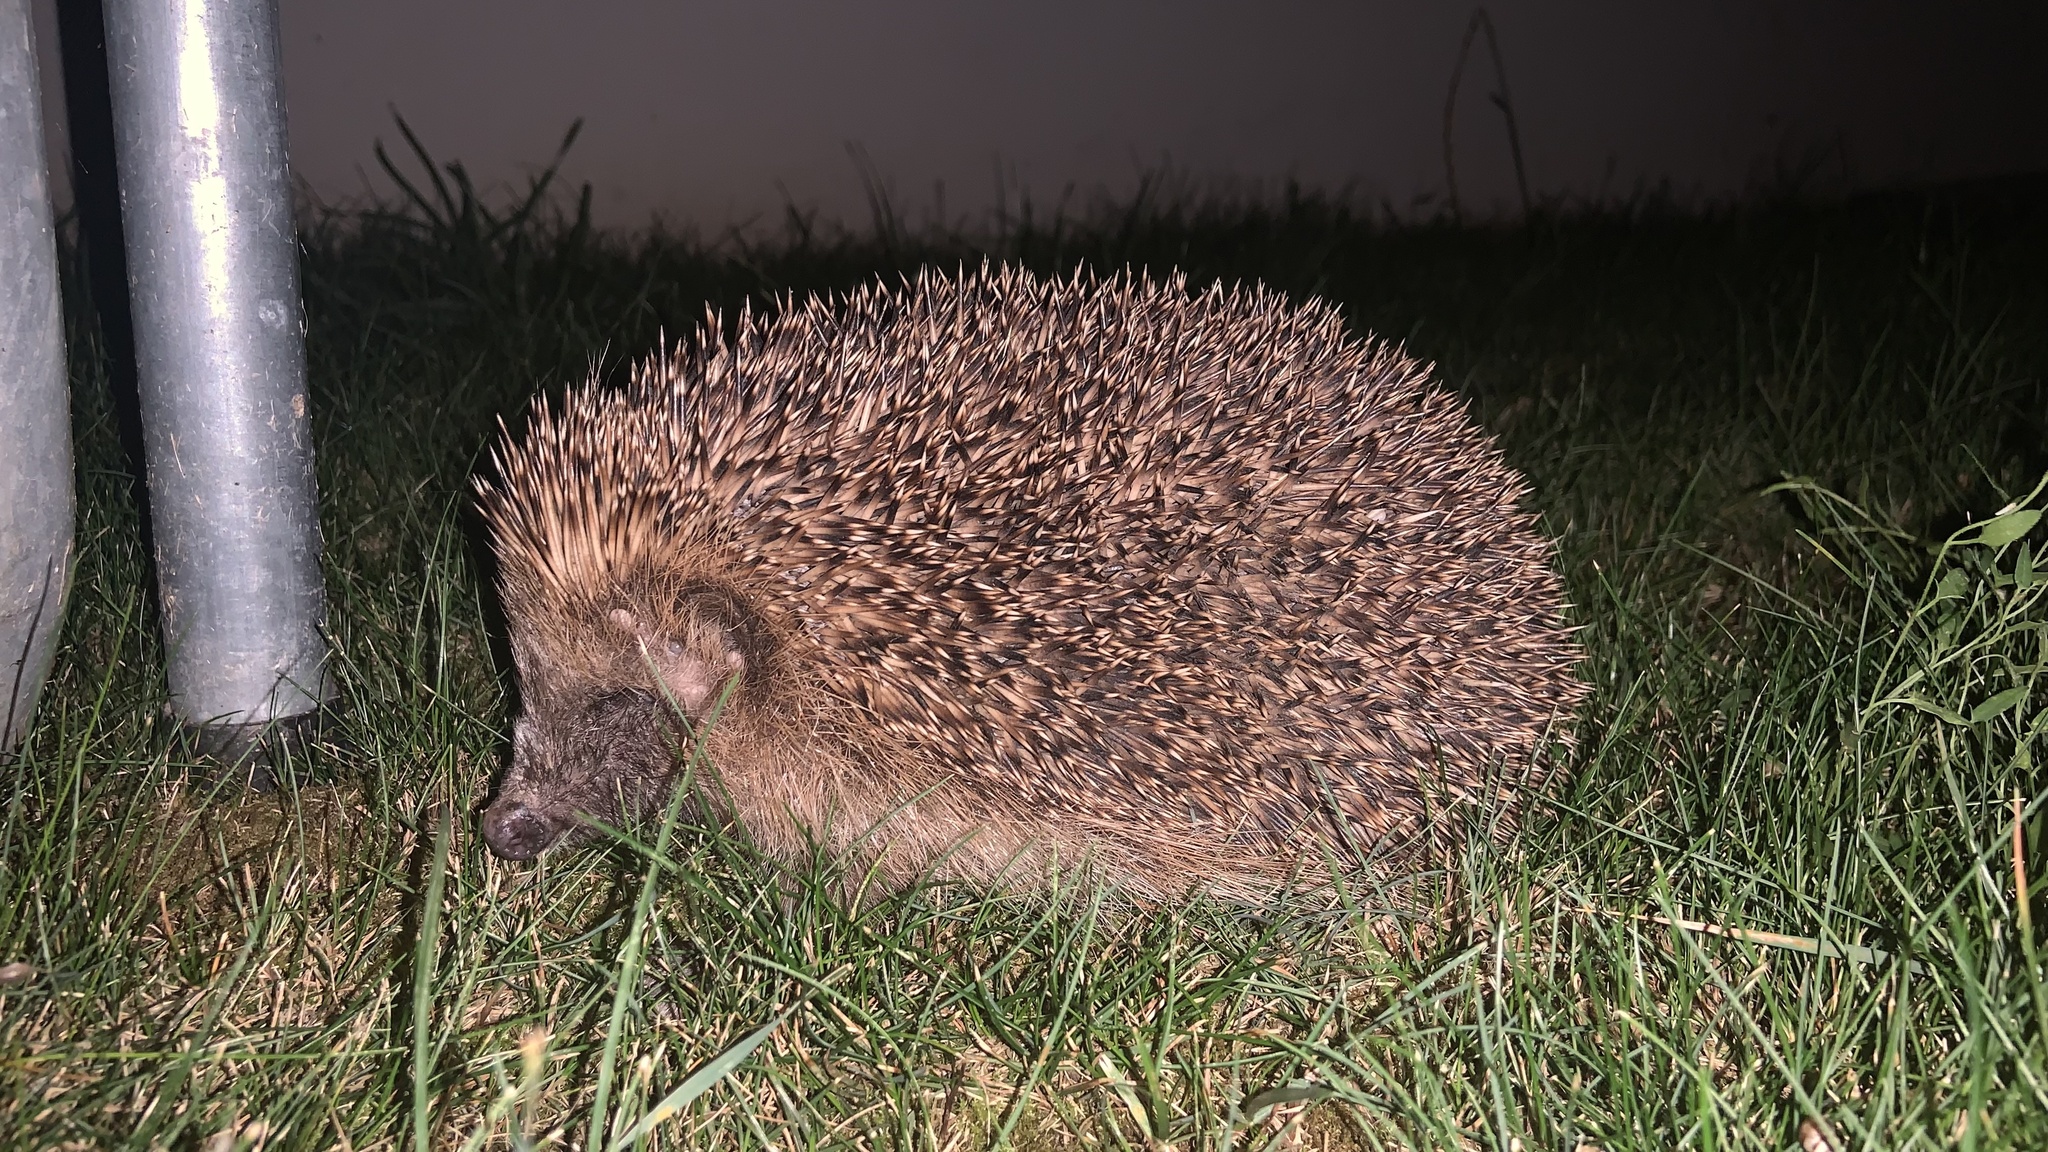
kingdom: Animalia
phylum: Chordata
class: Mammalia
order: Erinaceomorpha
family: Erinaceidae
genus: Erinaceus
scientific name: Erinaceus europaeus
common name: West european hedgehog
